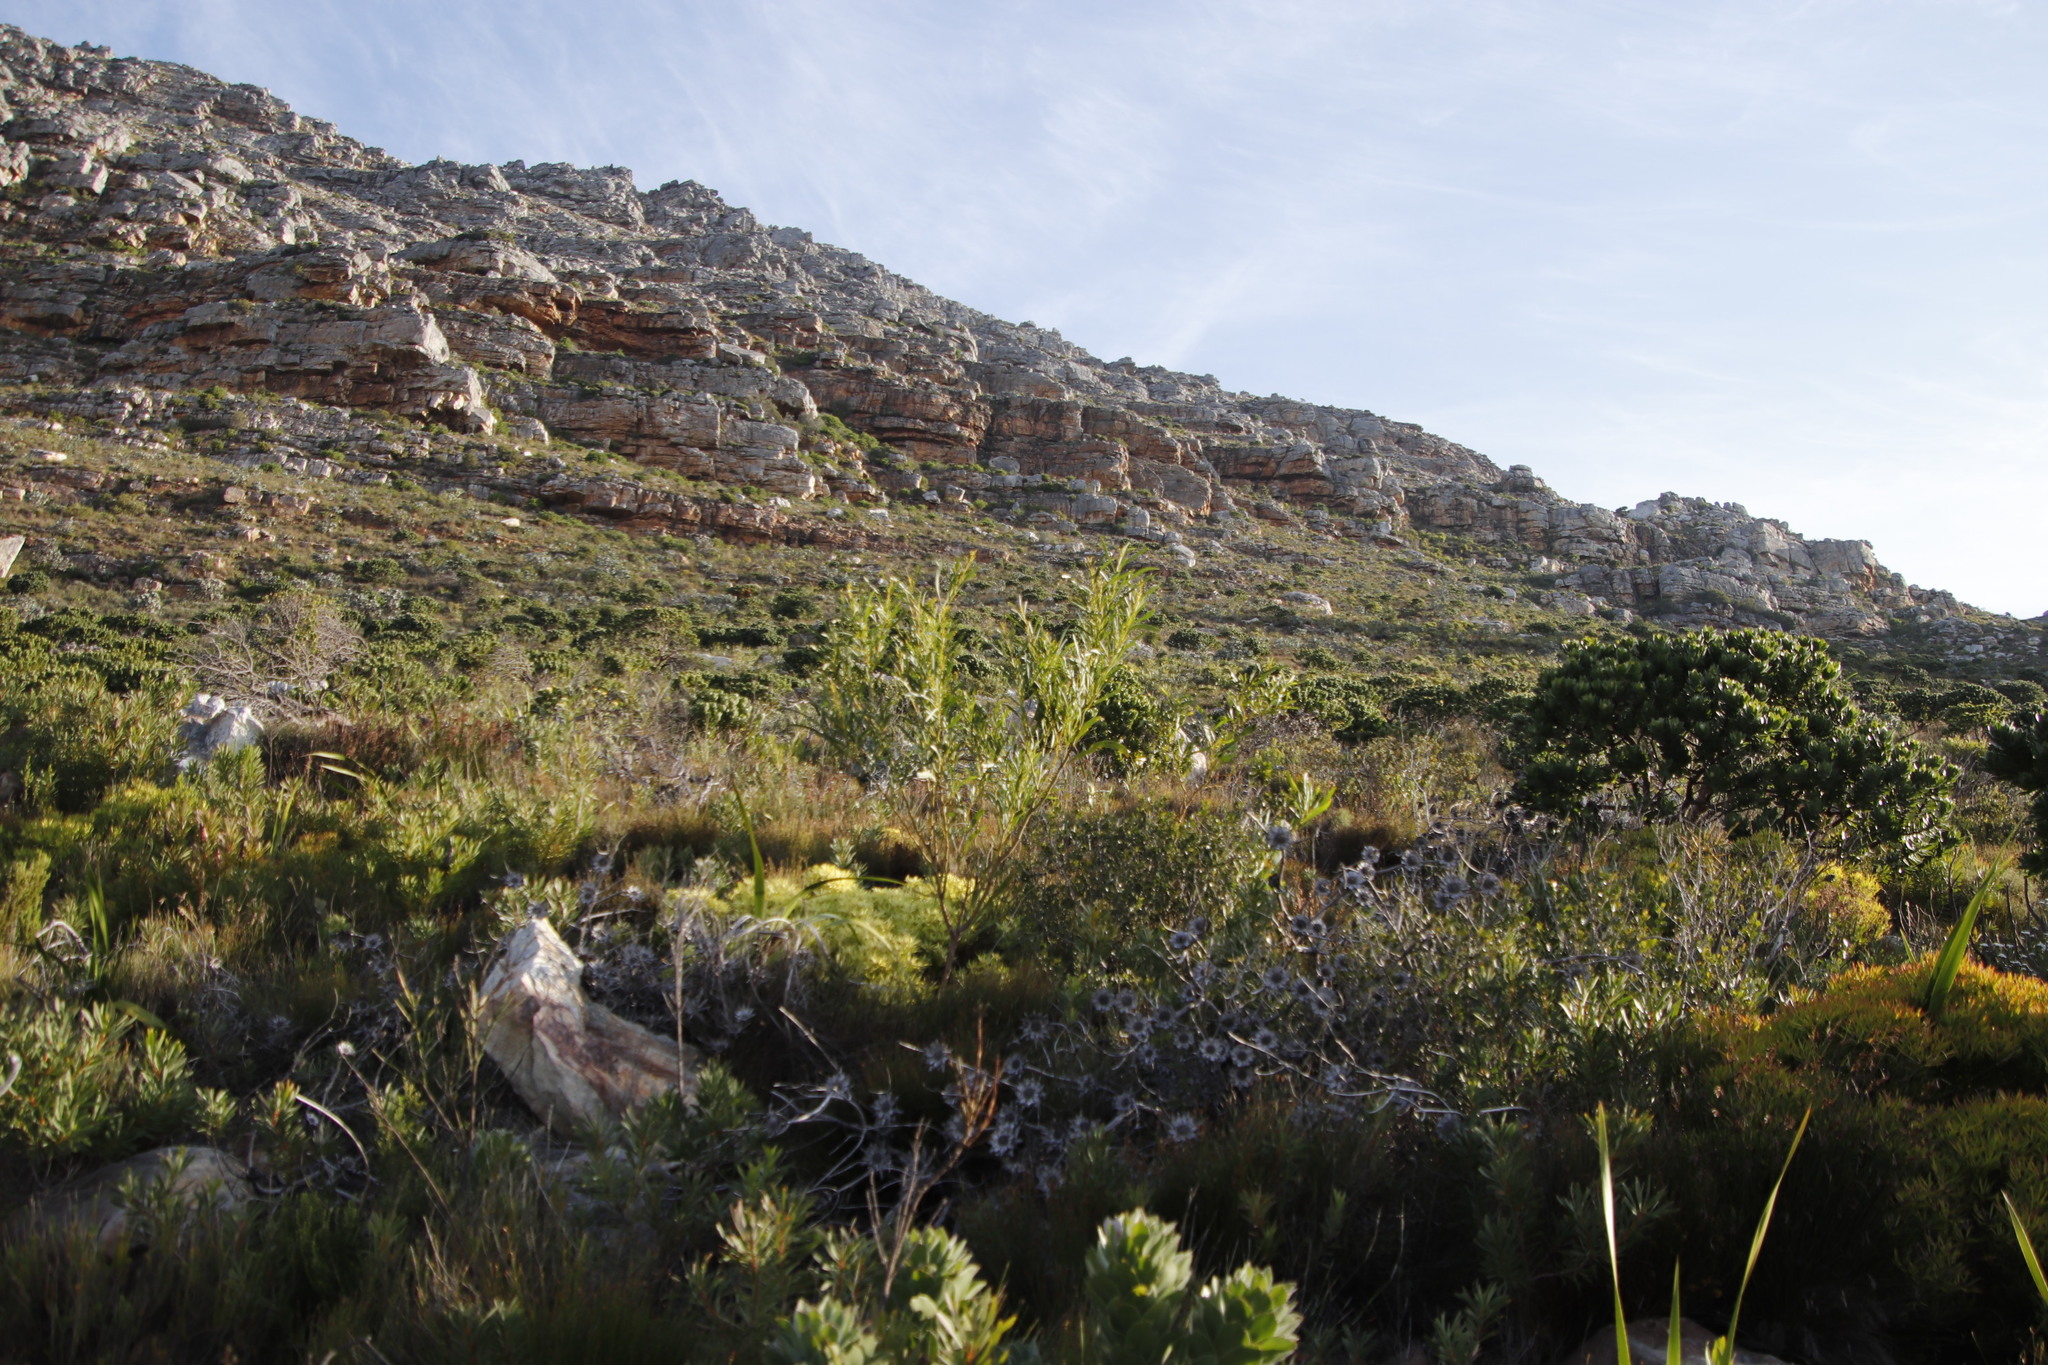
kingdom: Plantae
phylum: Tracheophyta
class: Magnoliopsida
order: Fabales
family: Fabaceae
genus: Acacia
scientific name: Acacia saligna
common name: Orange wattle
